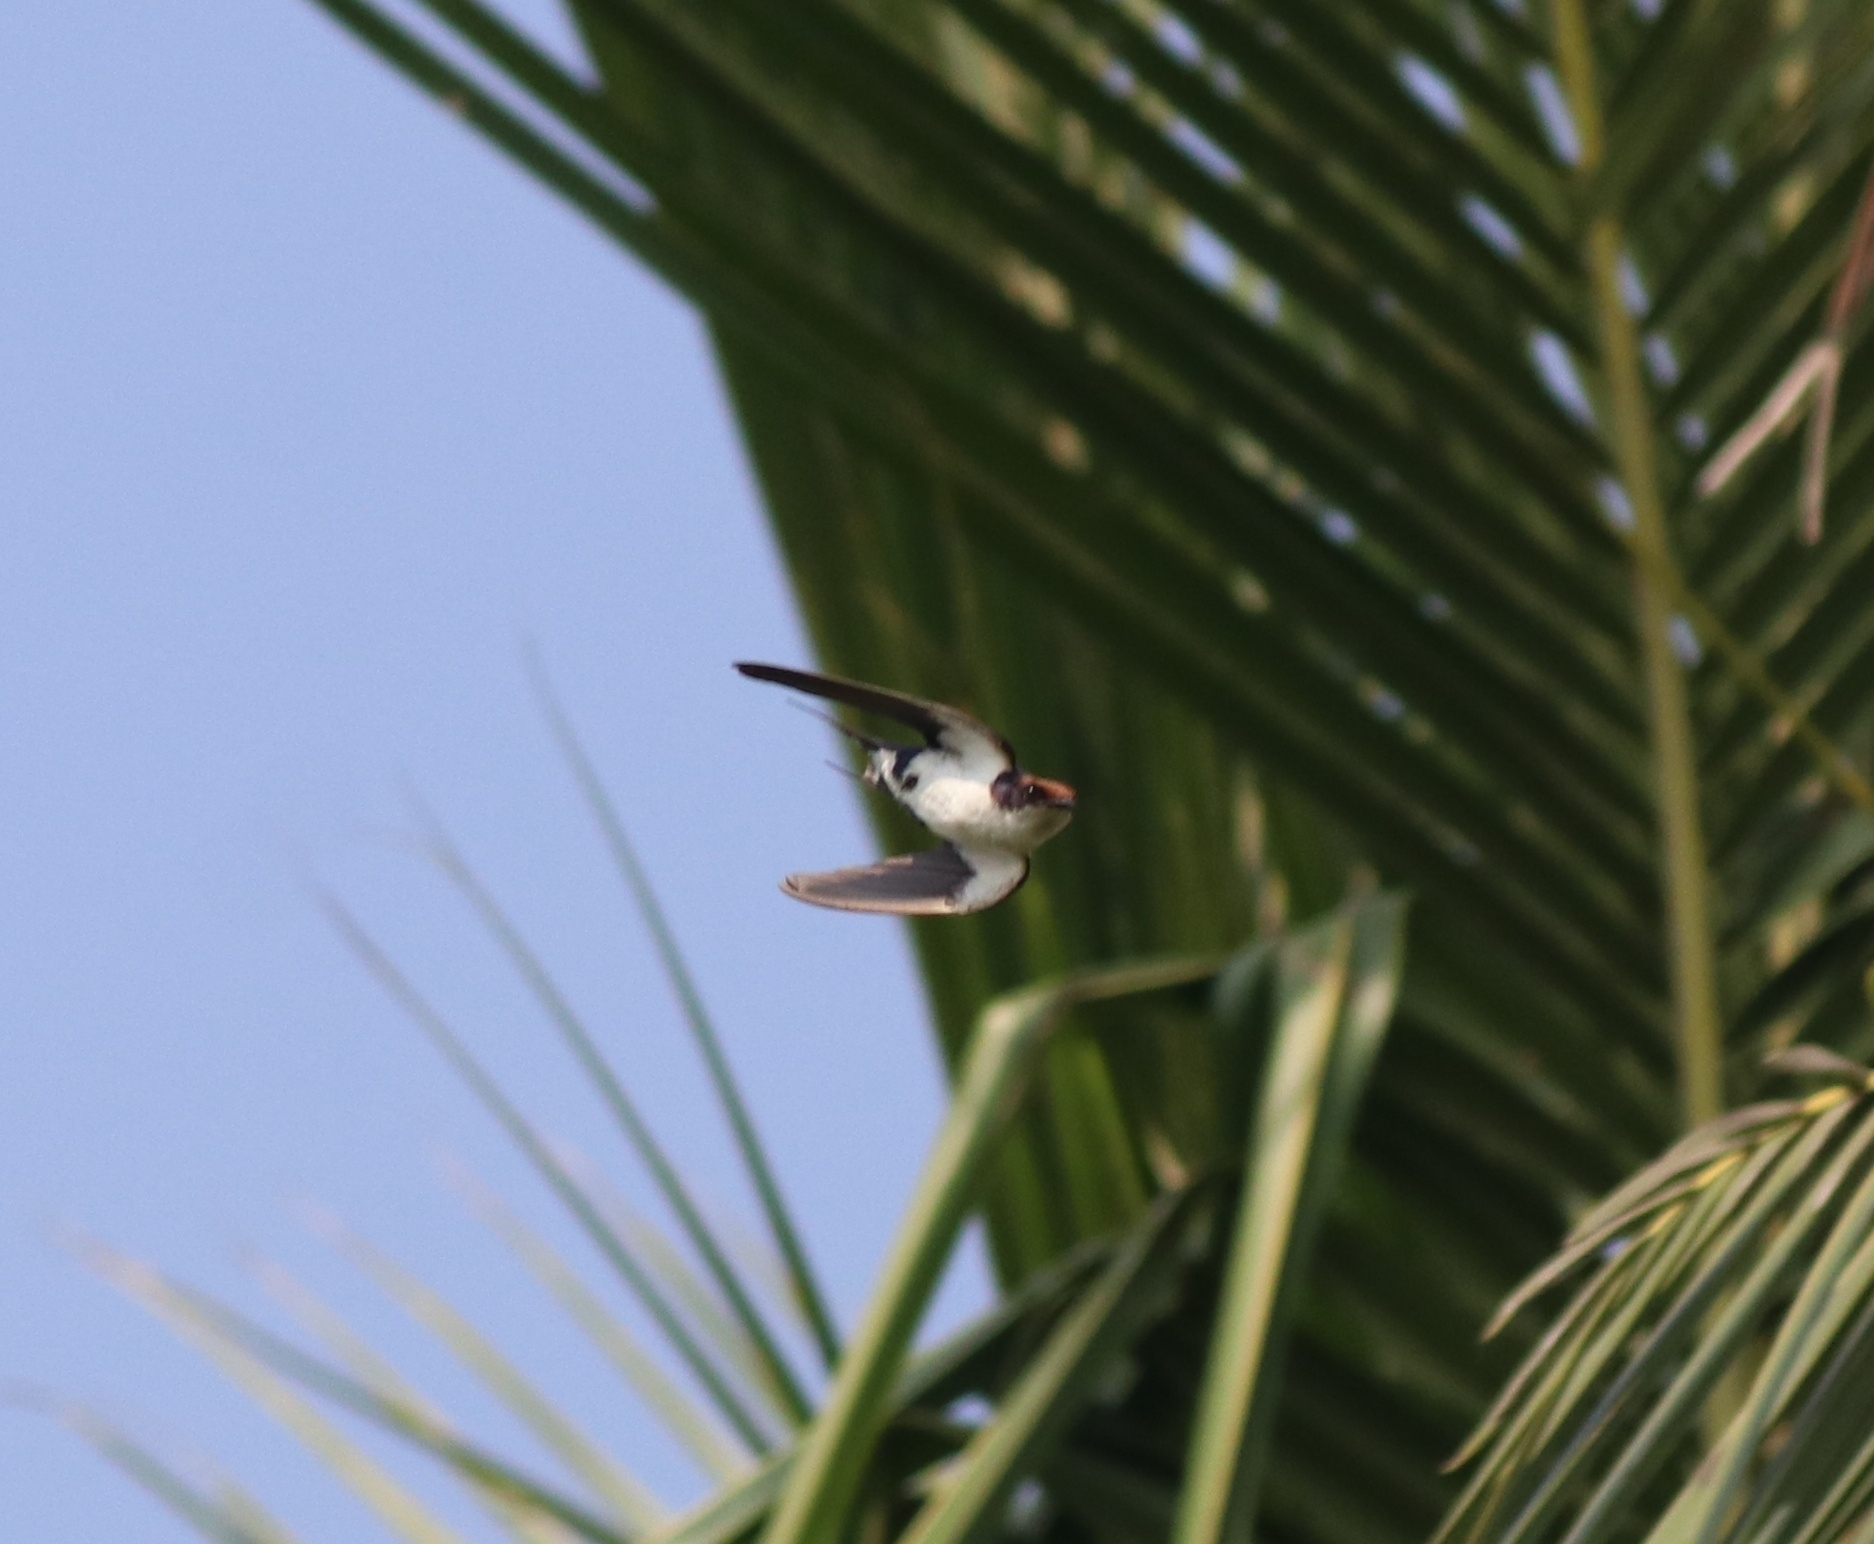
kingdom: Animalia
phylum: Chordata
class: Aves
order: Passeriformes
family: Hirundinidae
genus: Hirundo
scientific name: Hirundo smithii
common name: Wire-tailed swallow
